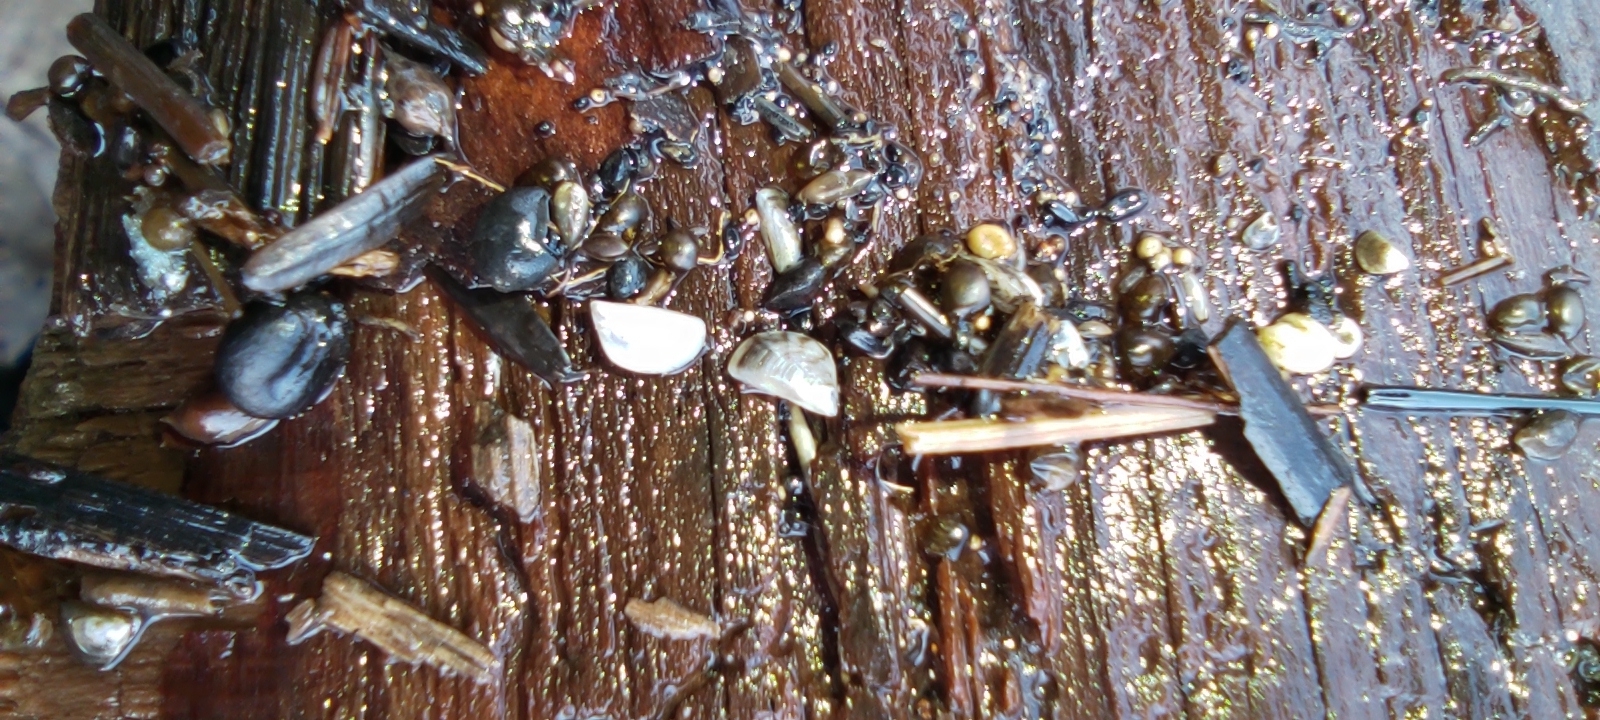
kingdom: Animalia
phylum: Mollusca
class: Bivalvia
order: Myida
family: Dreissenidae
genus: Dreissena
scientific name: Dreissena polymorpha
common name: Zebra mussel
